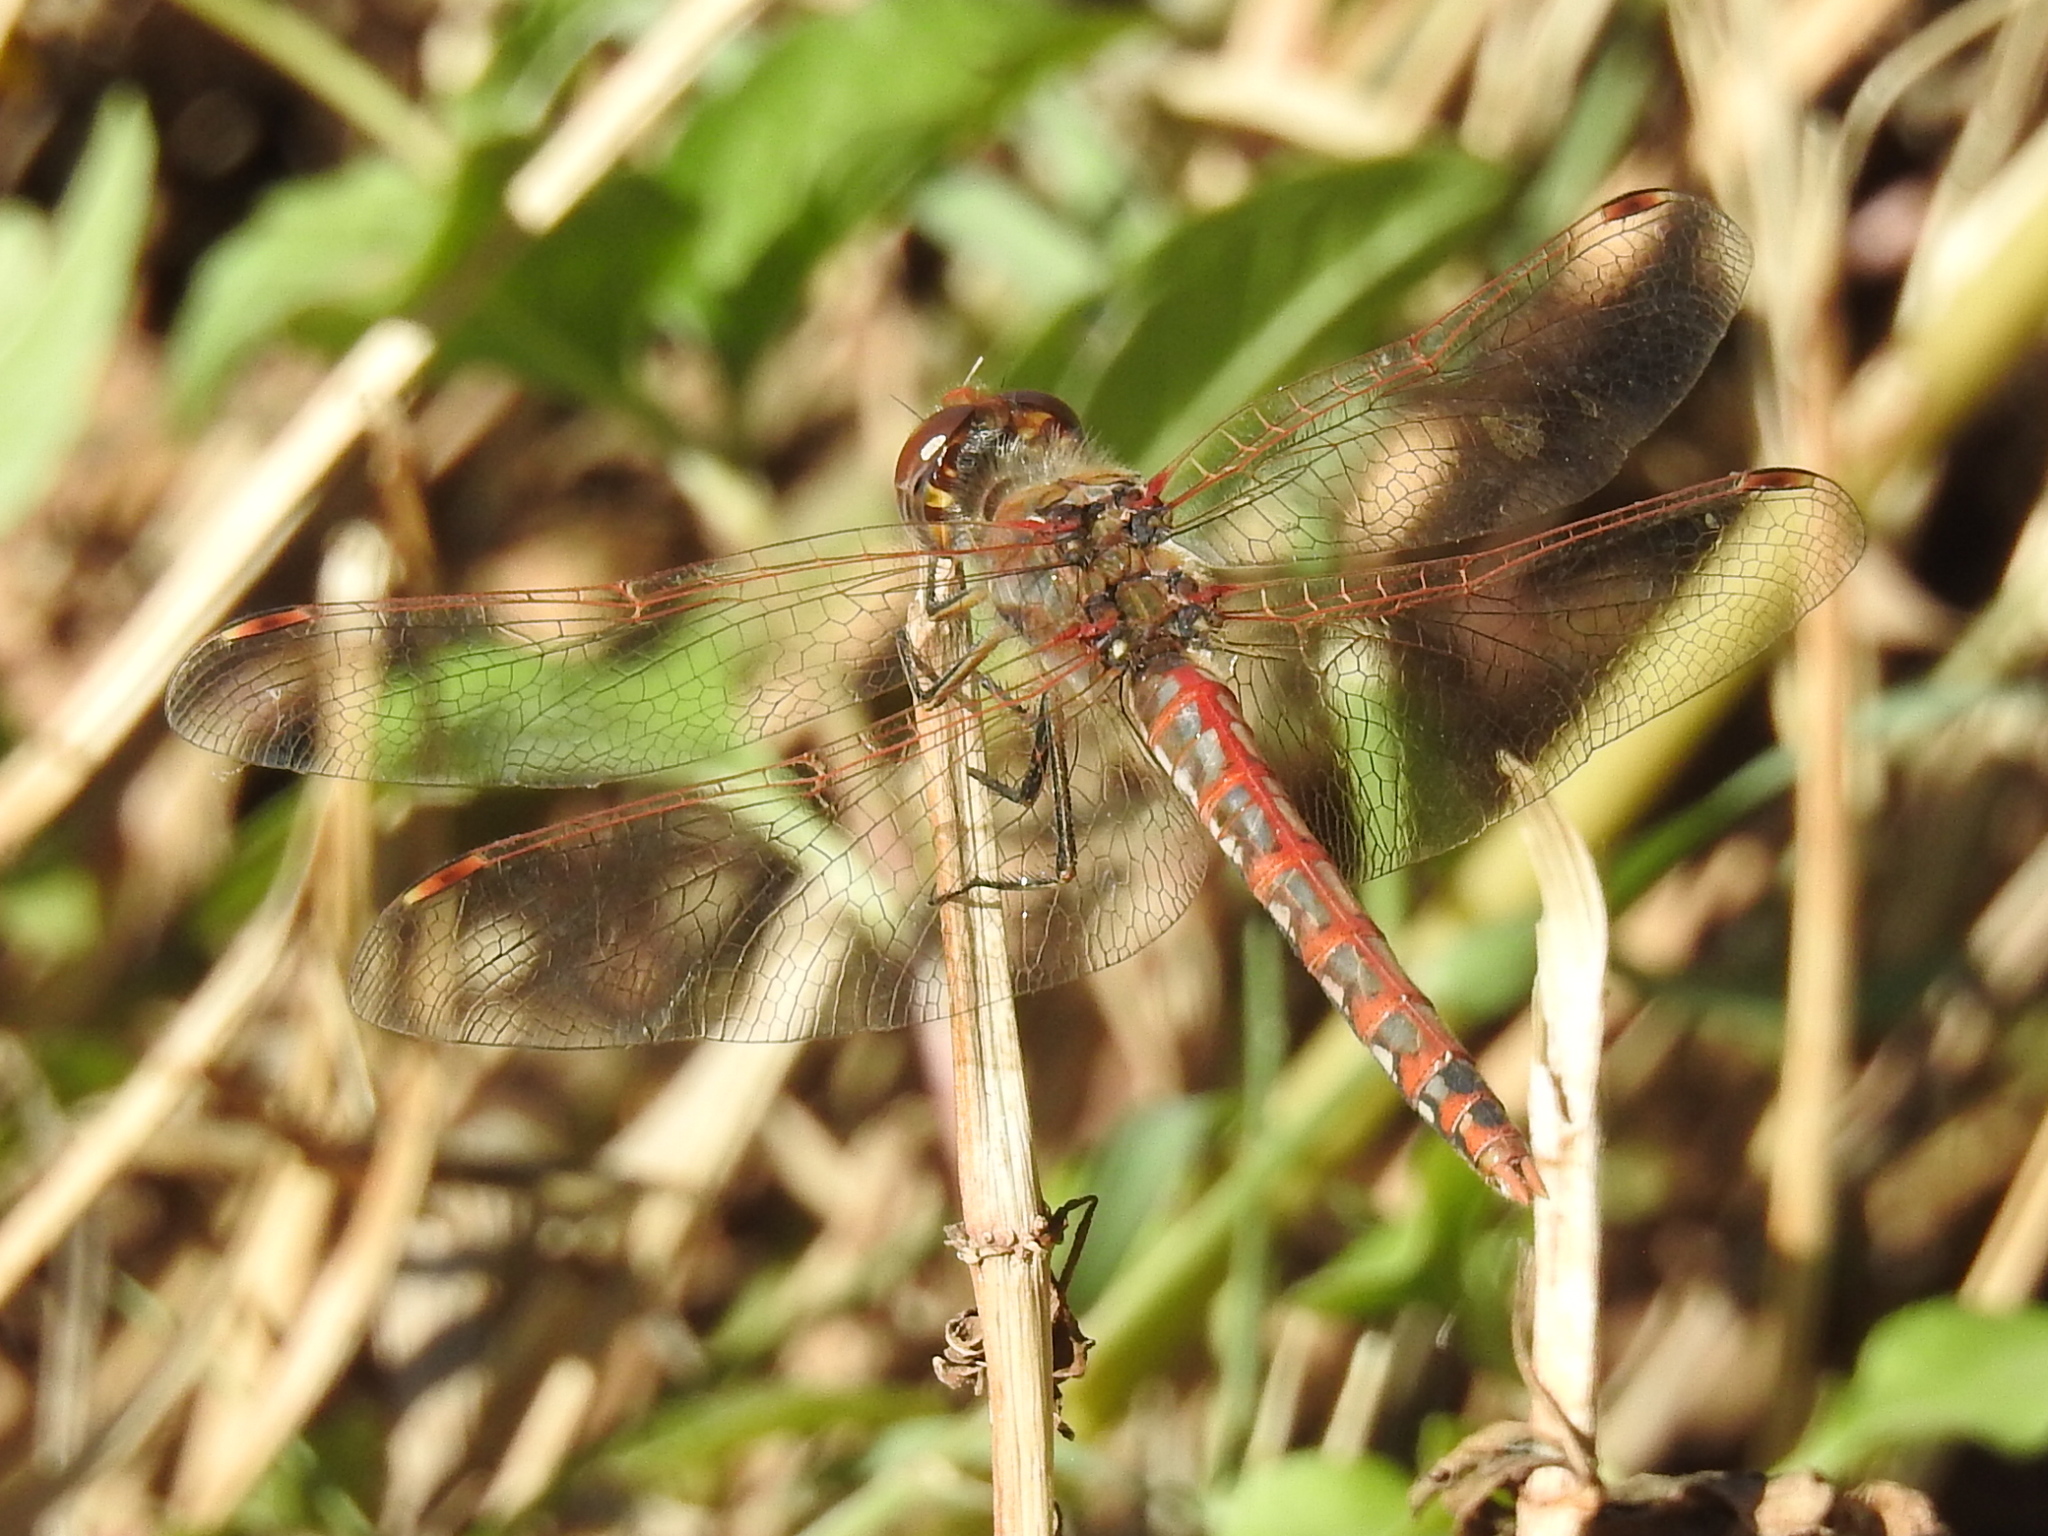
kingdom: Animalia
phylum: Arthropoda
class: Insecta
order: Odonata
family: Libellulidae
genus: Sympetrum
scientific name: Sympetrum corruptum
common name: Variegated meadowhawk
